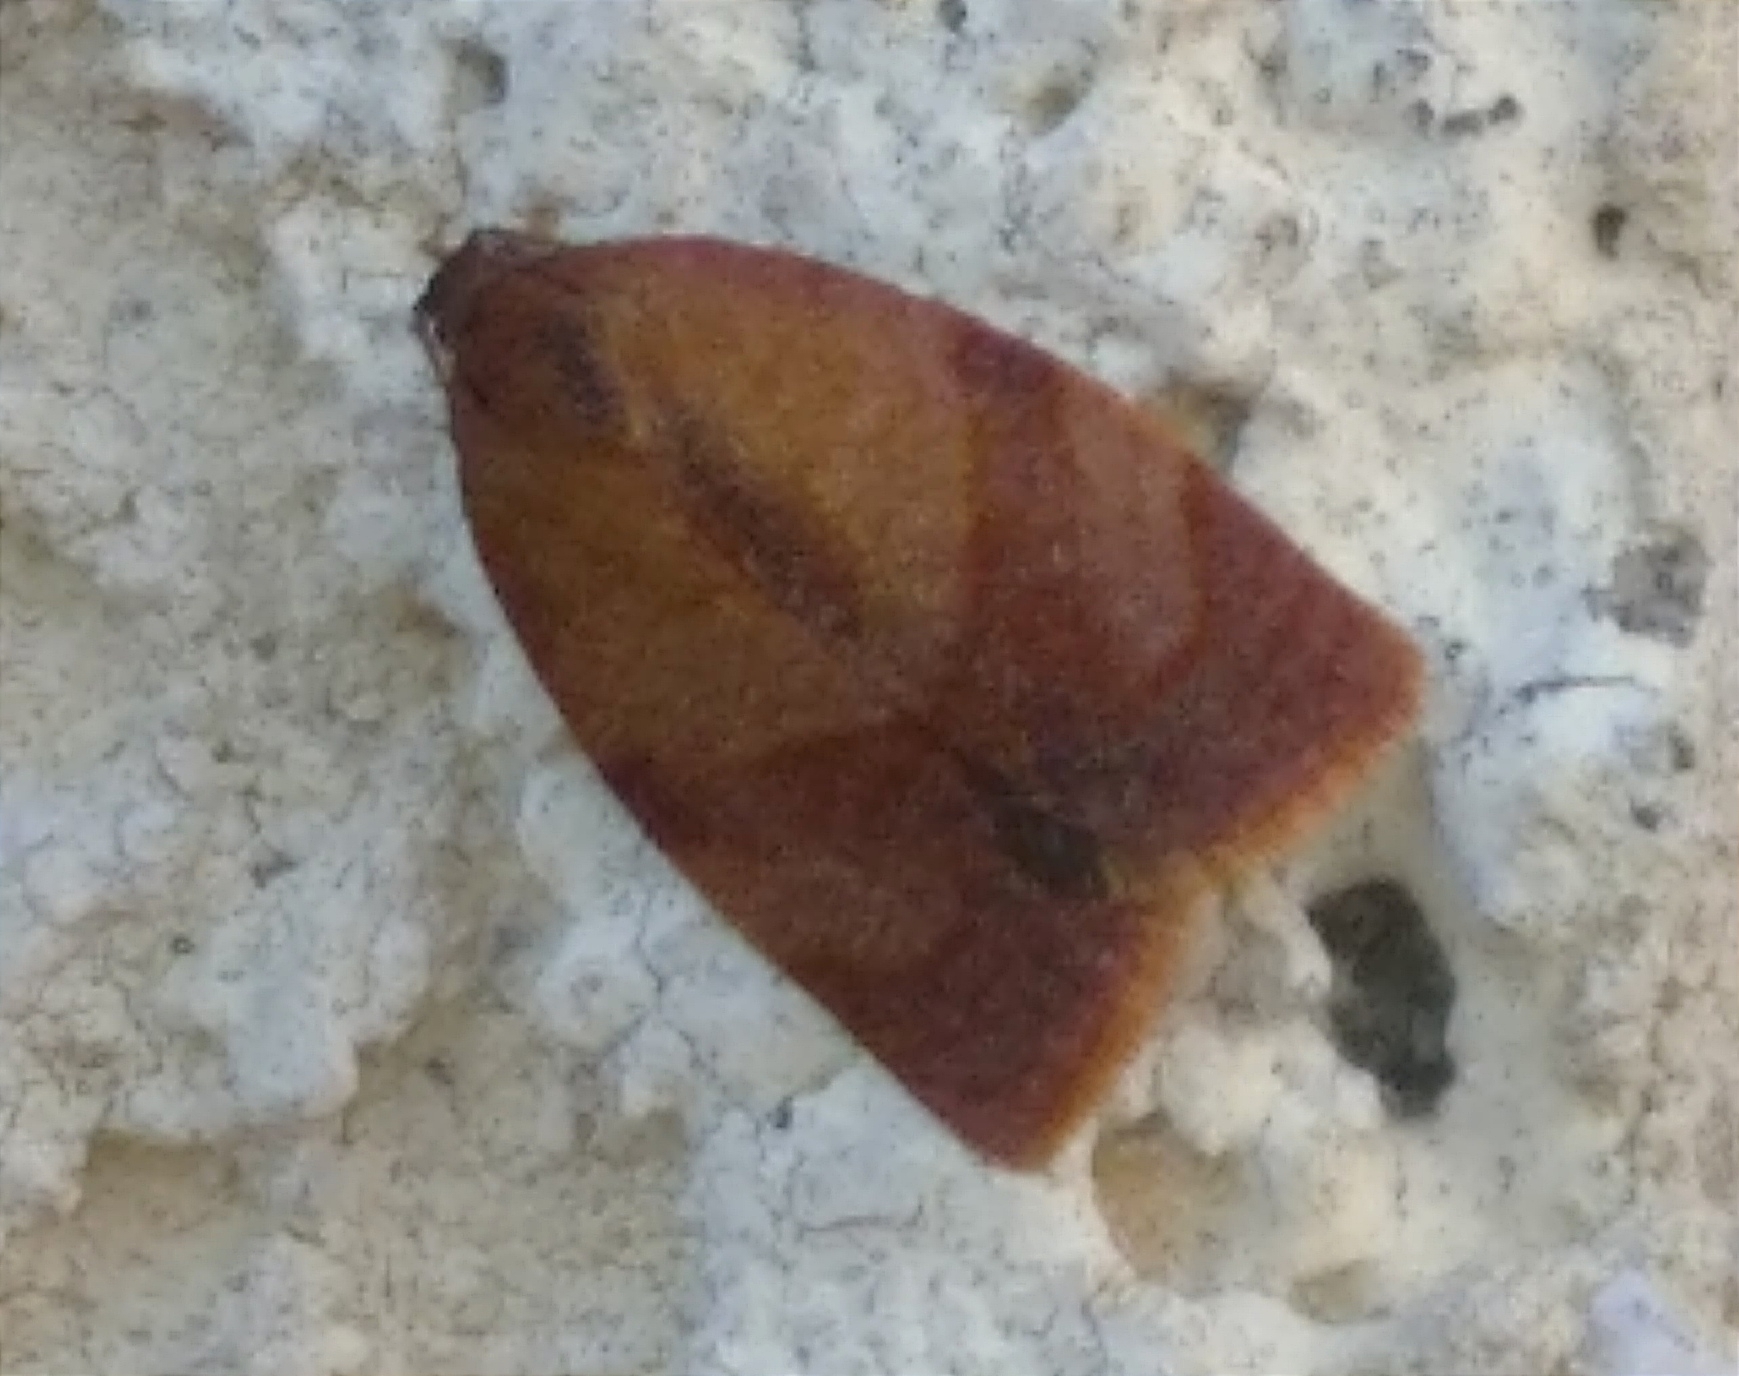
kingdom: Animalia
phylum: Arthropoda
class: Insecta
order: Lepidoptera
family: Tortricidae
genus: Cacoecimorpha
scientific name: Cacoecimorpha pronubana
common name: Carnation tortrix
